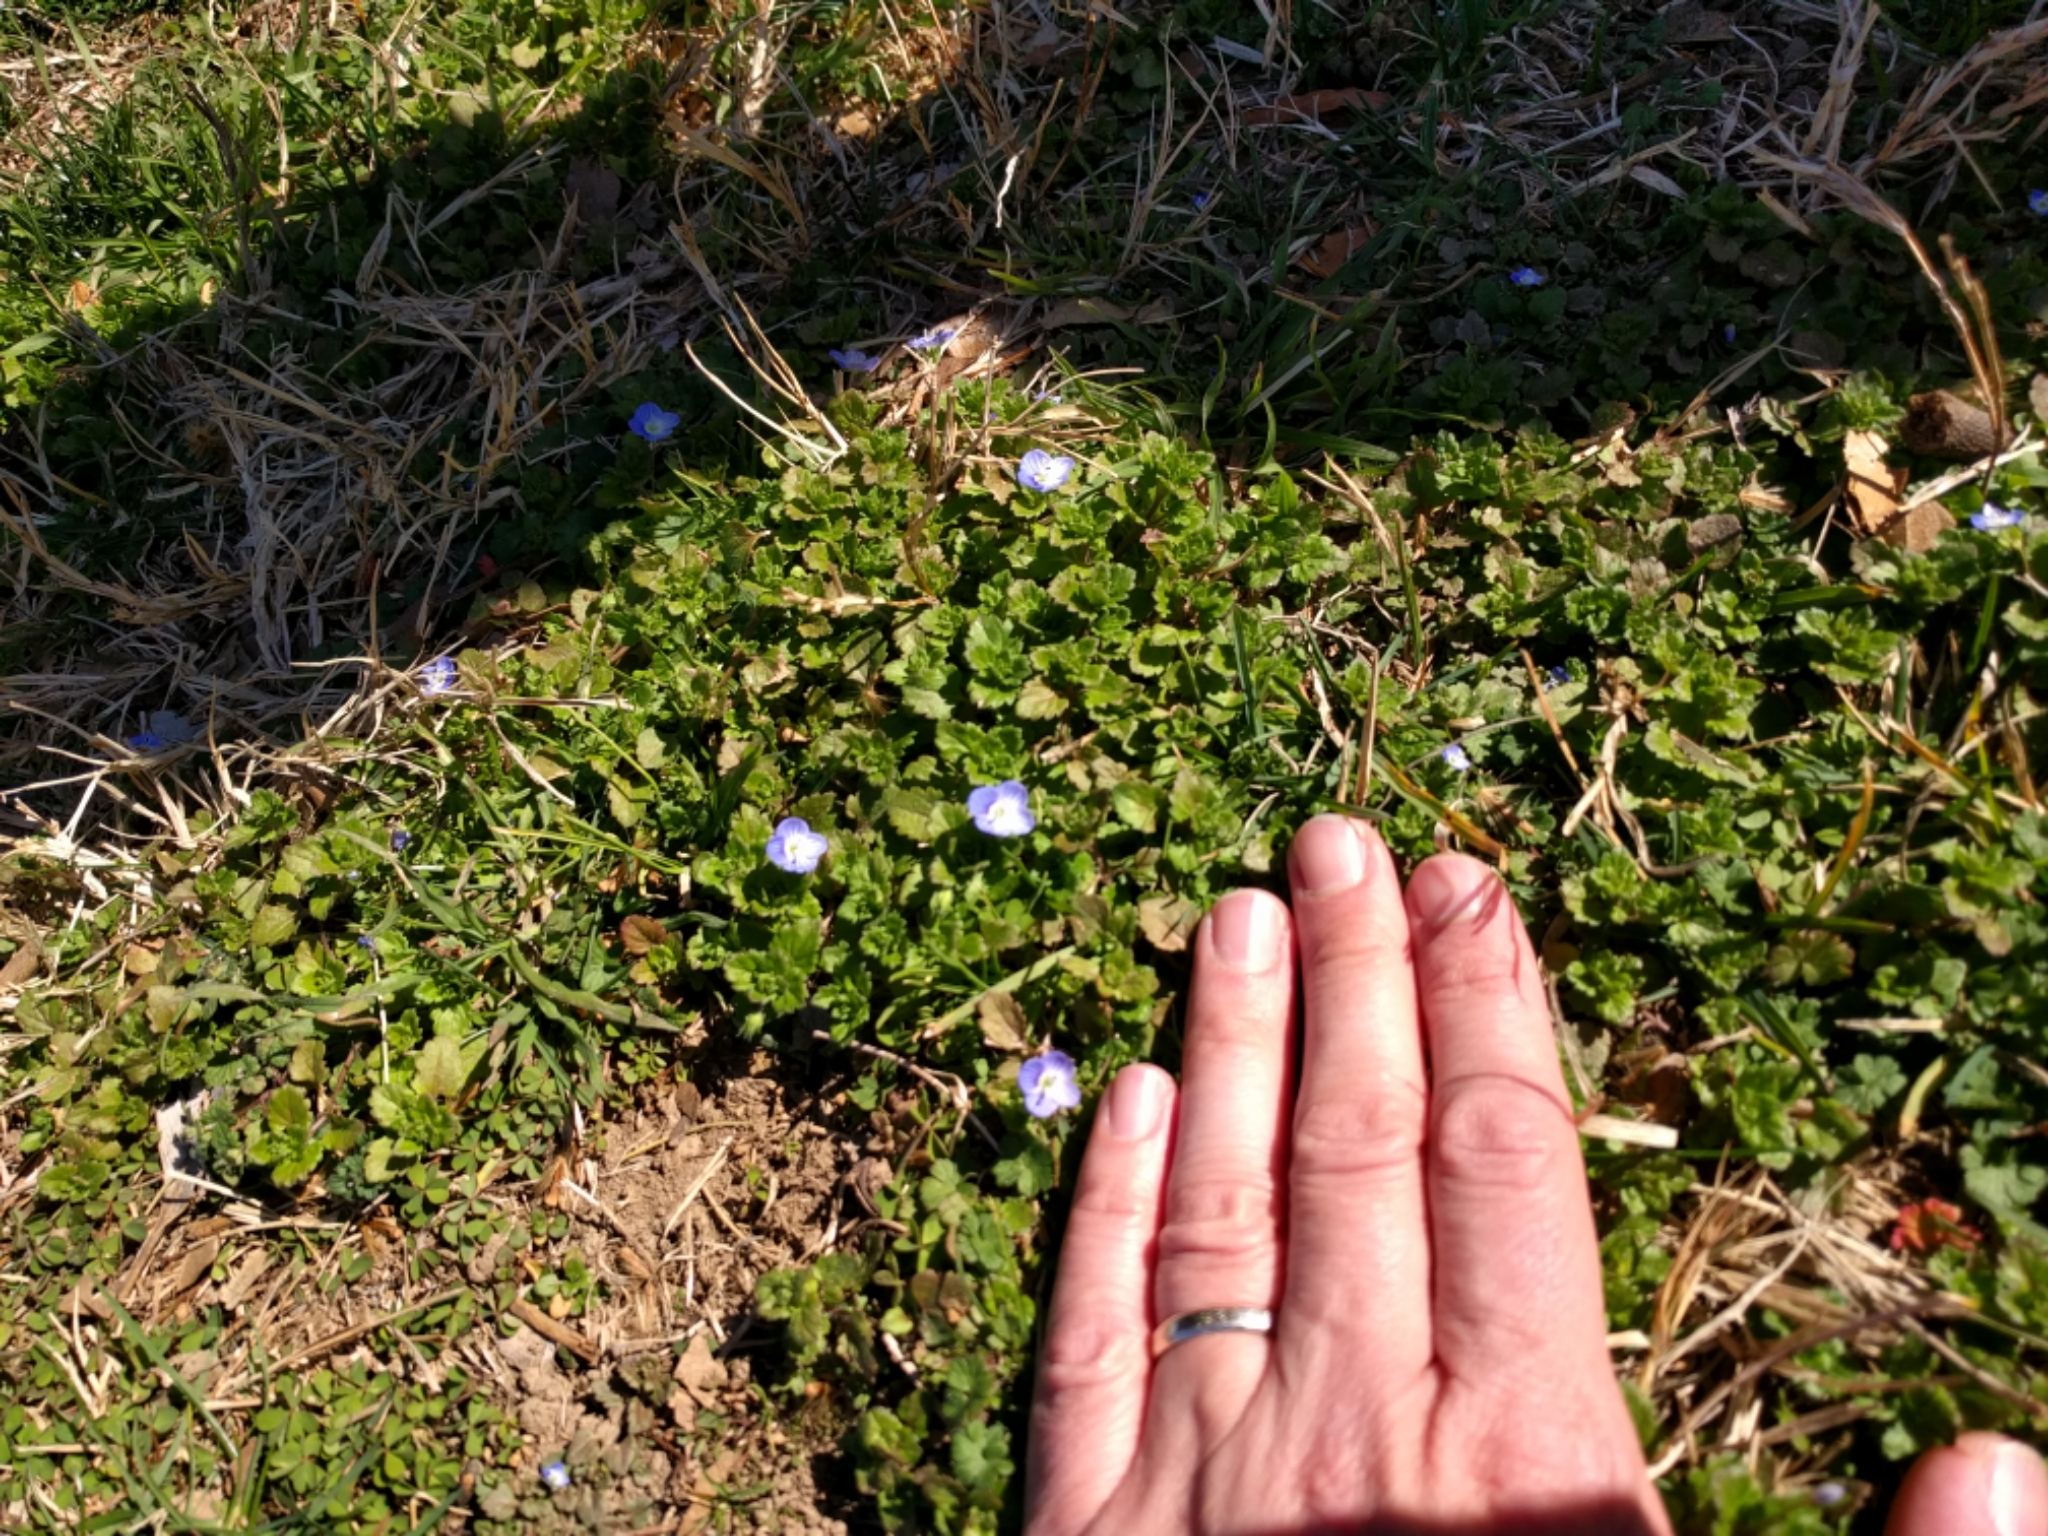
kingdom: Plantae
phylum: Tracheophyta
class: Magnoliopsida
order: Lamiales
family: Plantaginaceae
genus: Veronica
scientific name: Veronica persica
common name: Common field-speedwell
